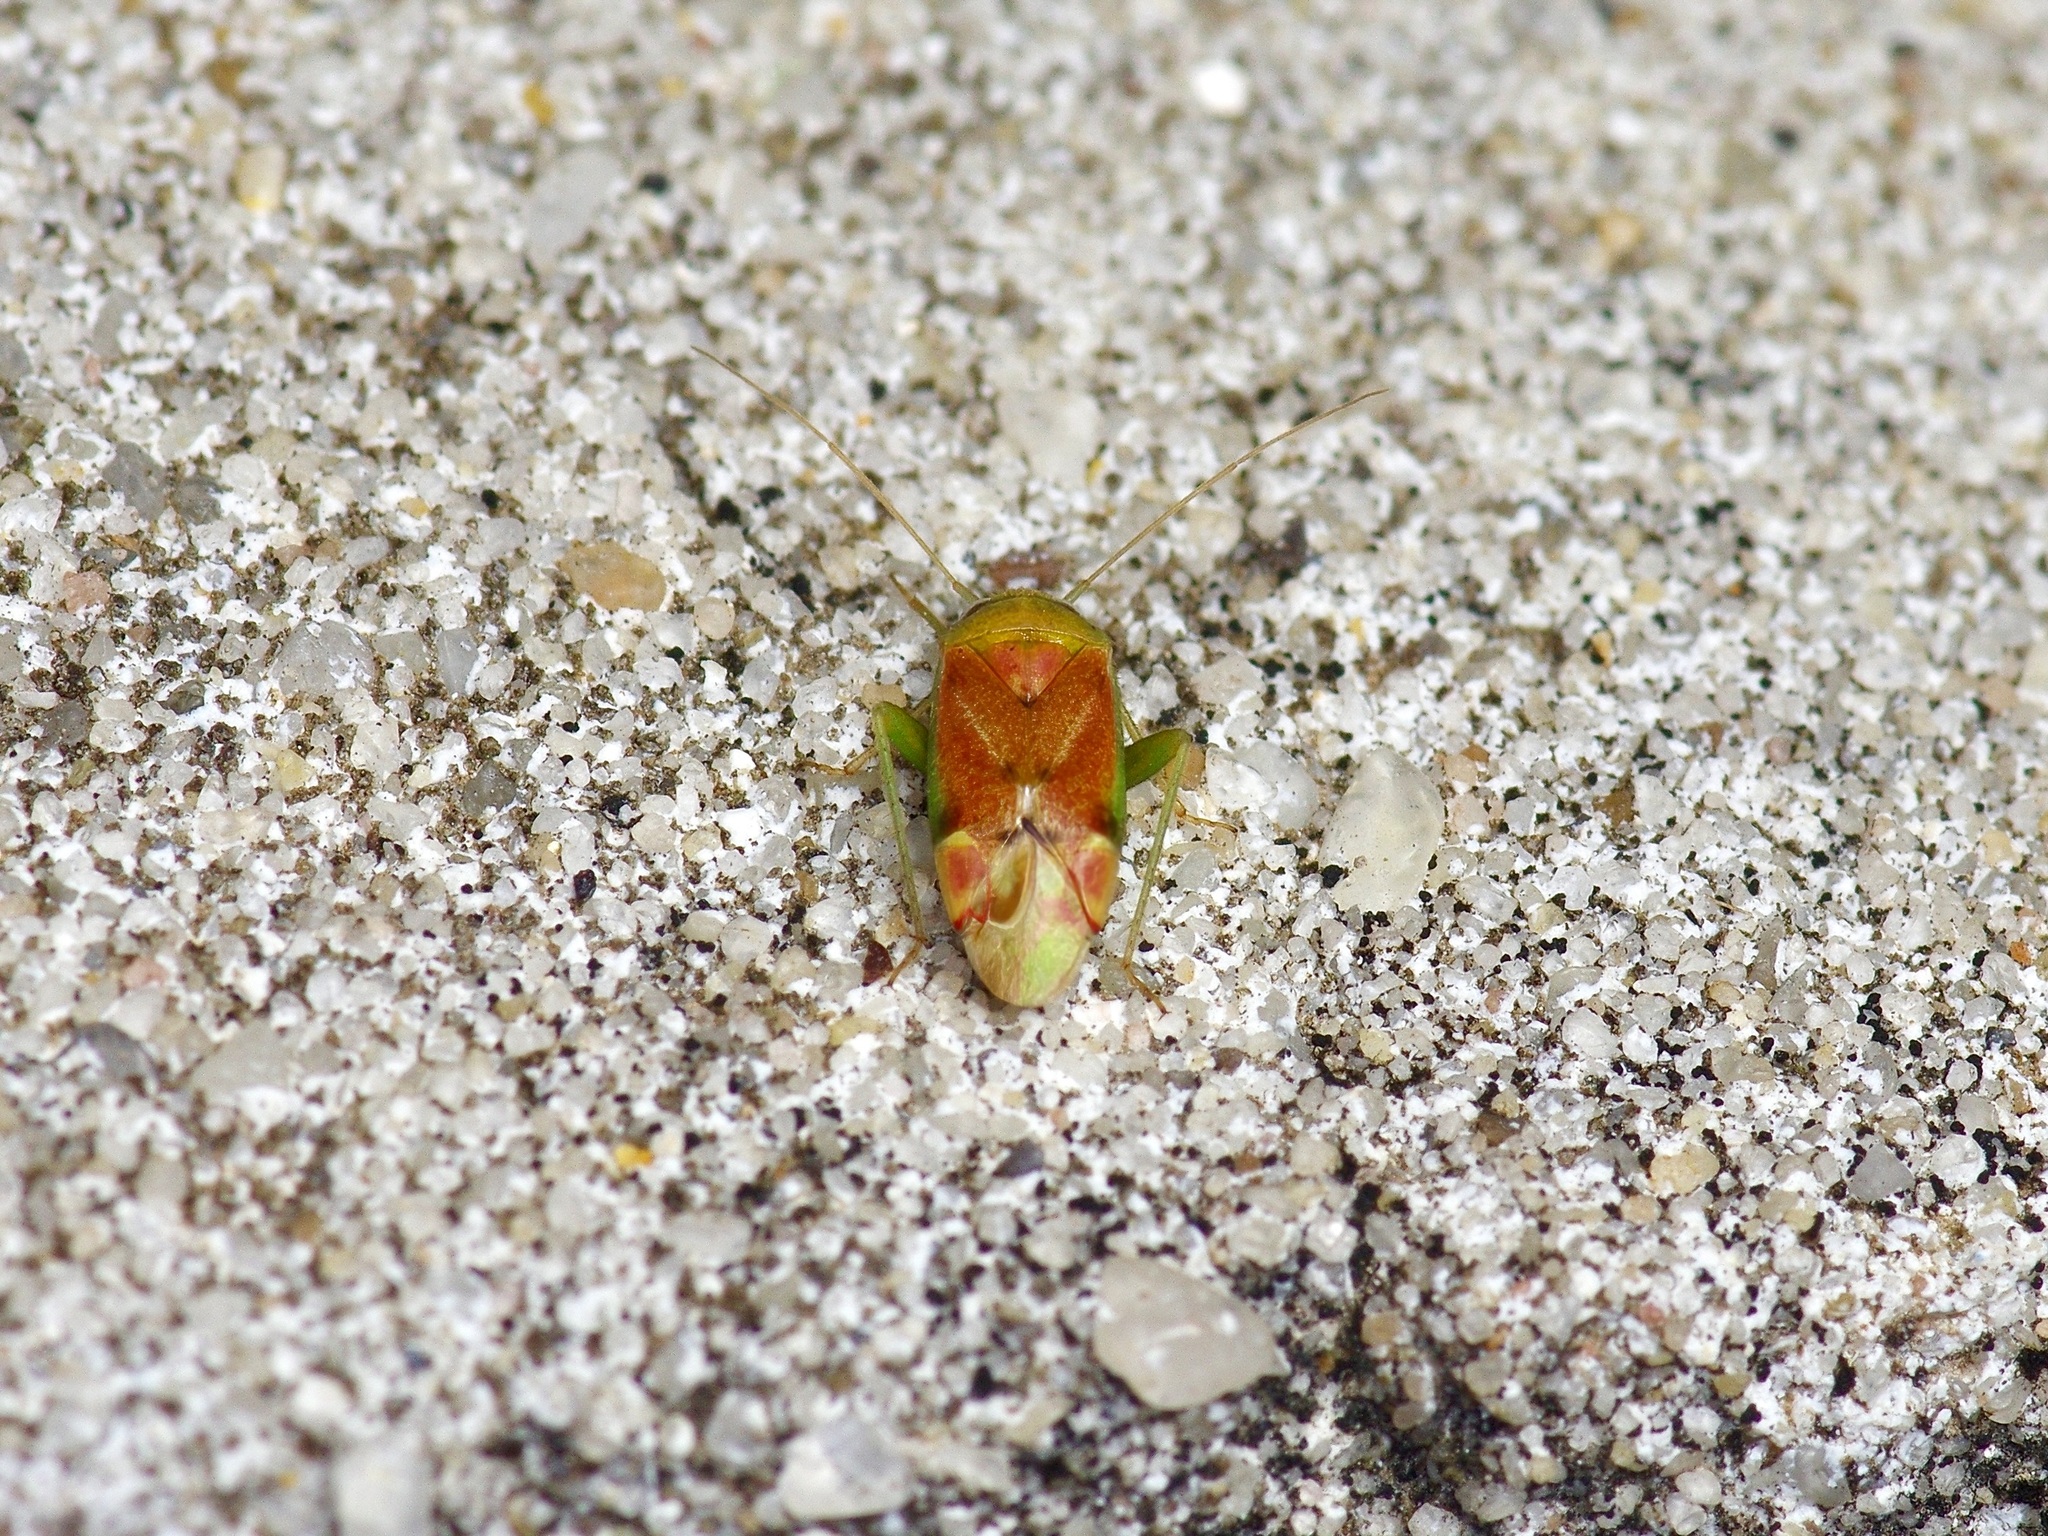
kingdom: Animalia
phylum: Arthropoda
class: Insecta
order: Hemiptera
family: Miridae
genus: Dichrooscytus
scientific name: Dichrooscytus
